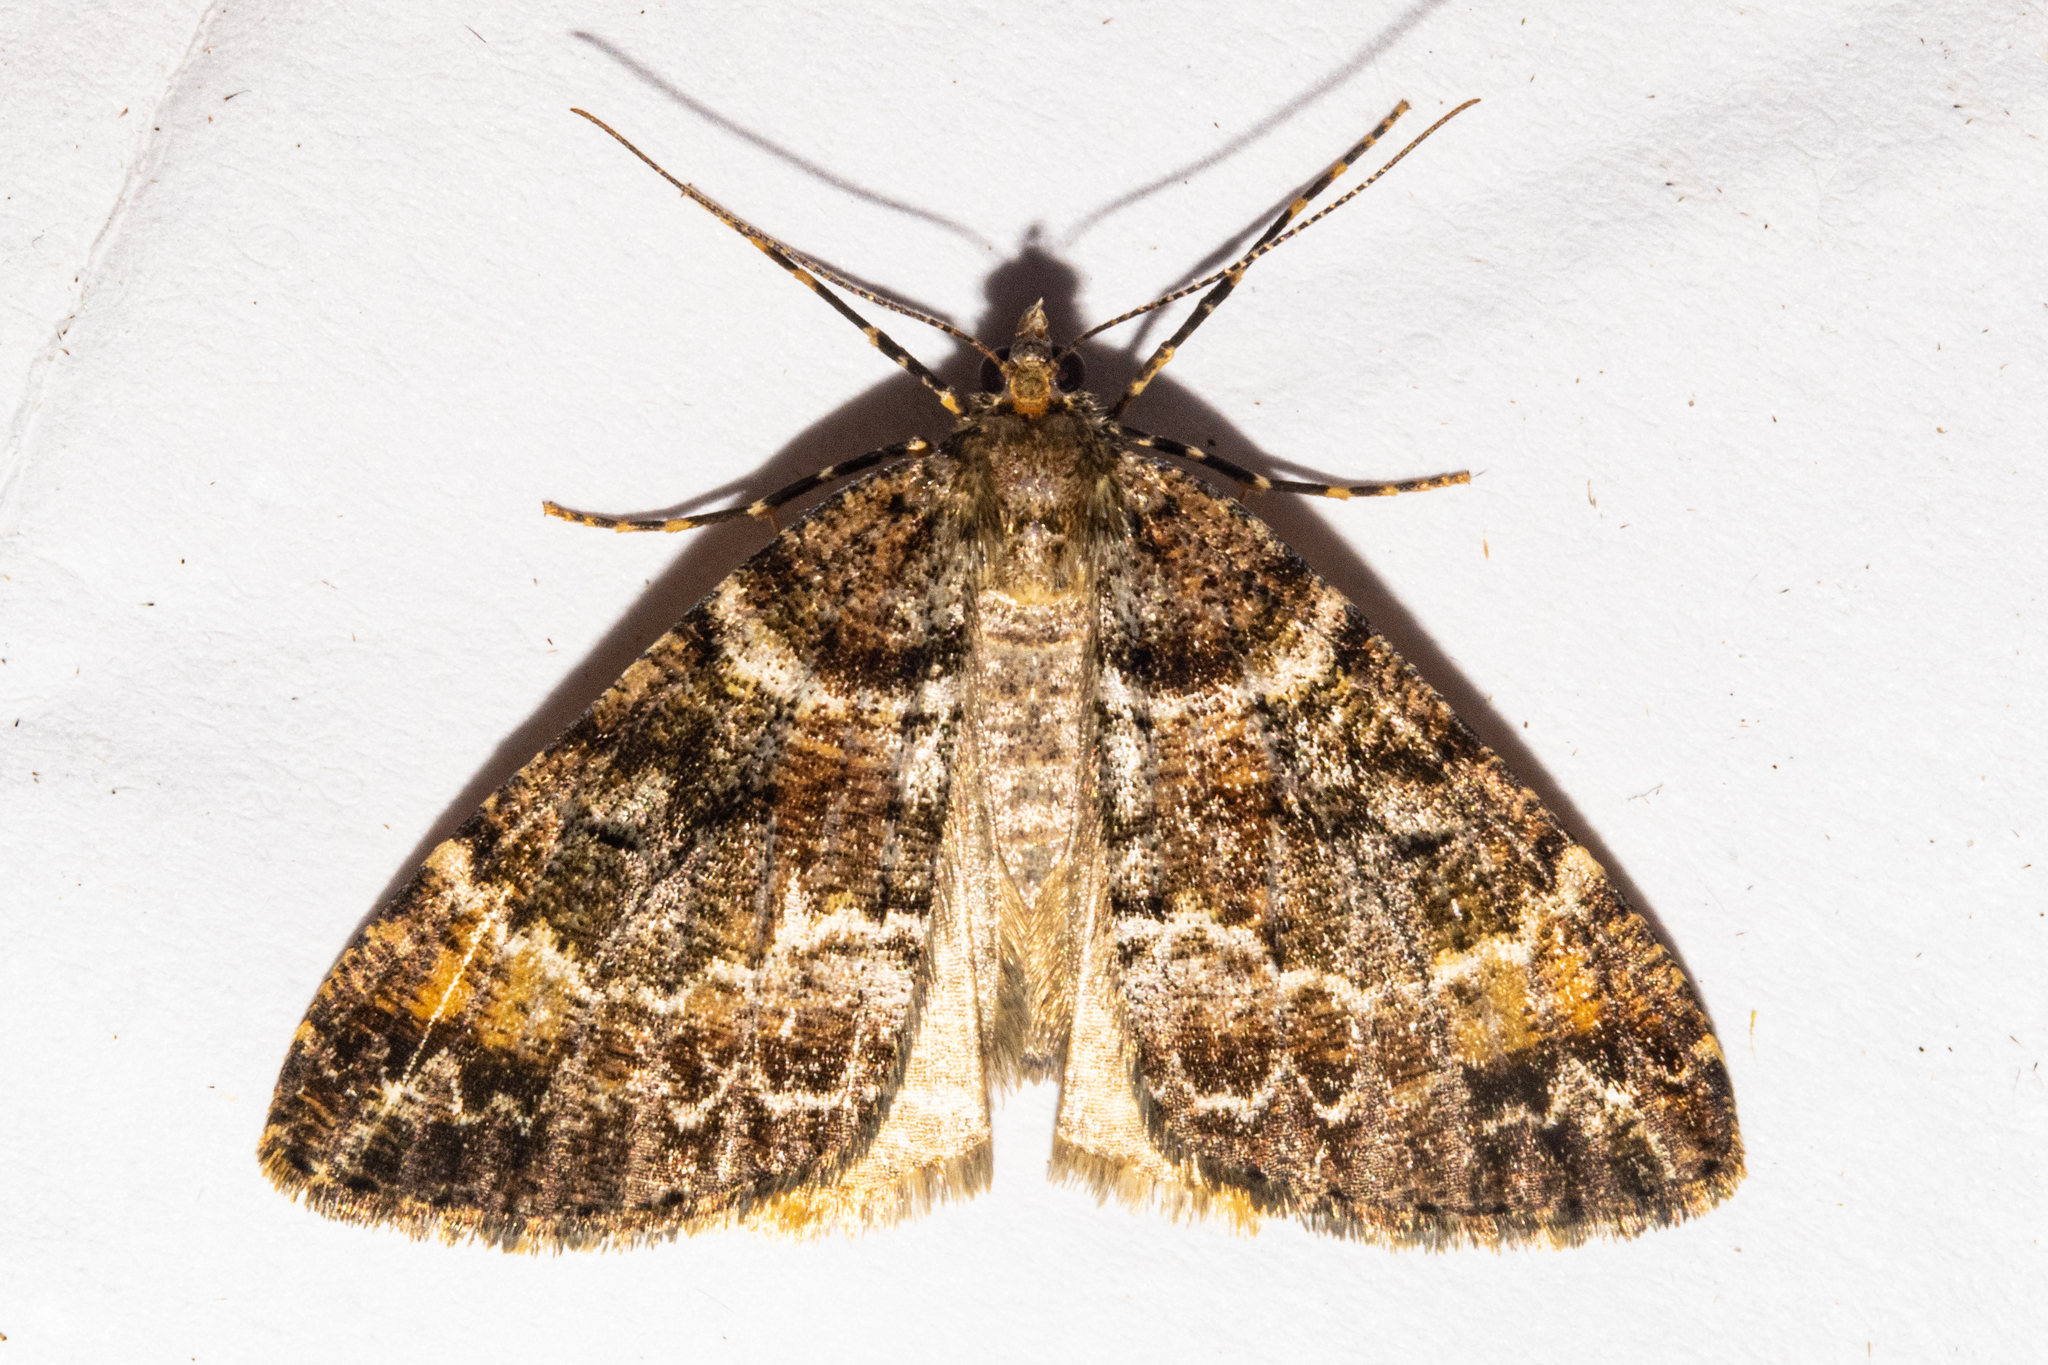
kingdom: Animalia
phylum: Arthropoda
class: Insecta
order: Lepidoptera
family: Geometridae
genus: Pseudocoremia
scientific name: Pseudocoremia productata
